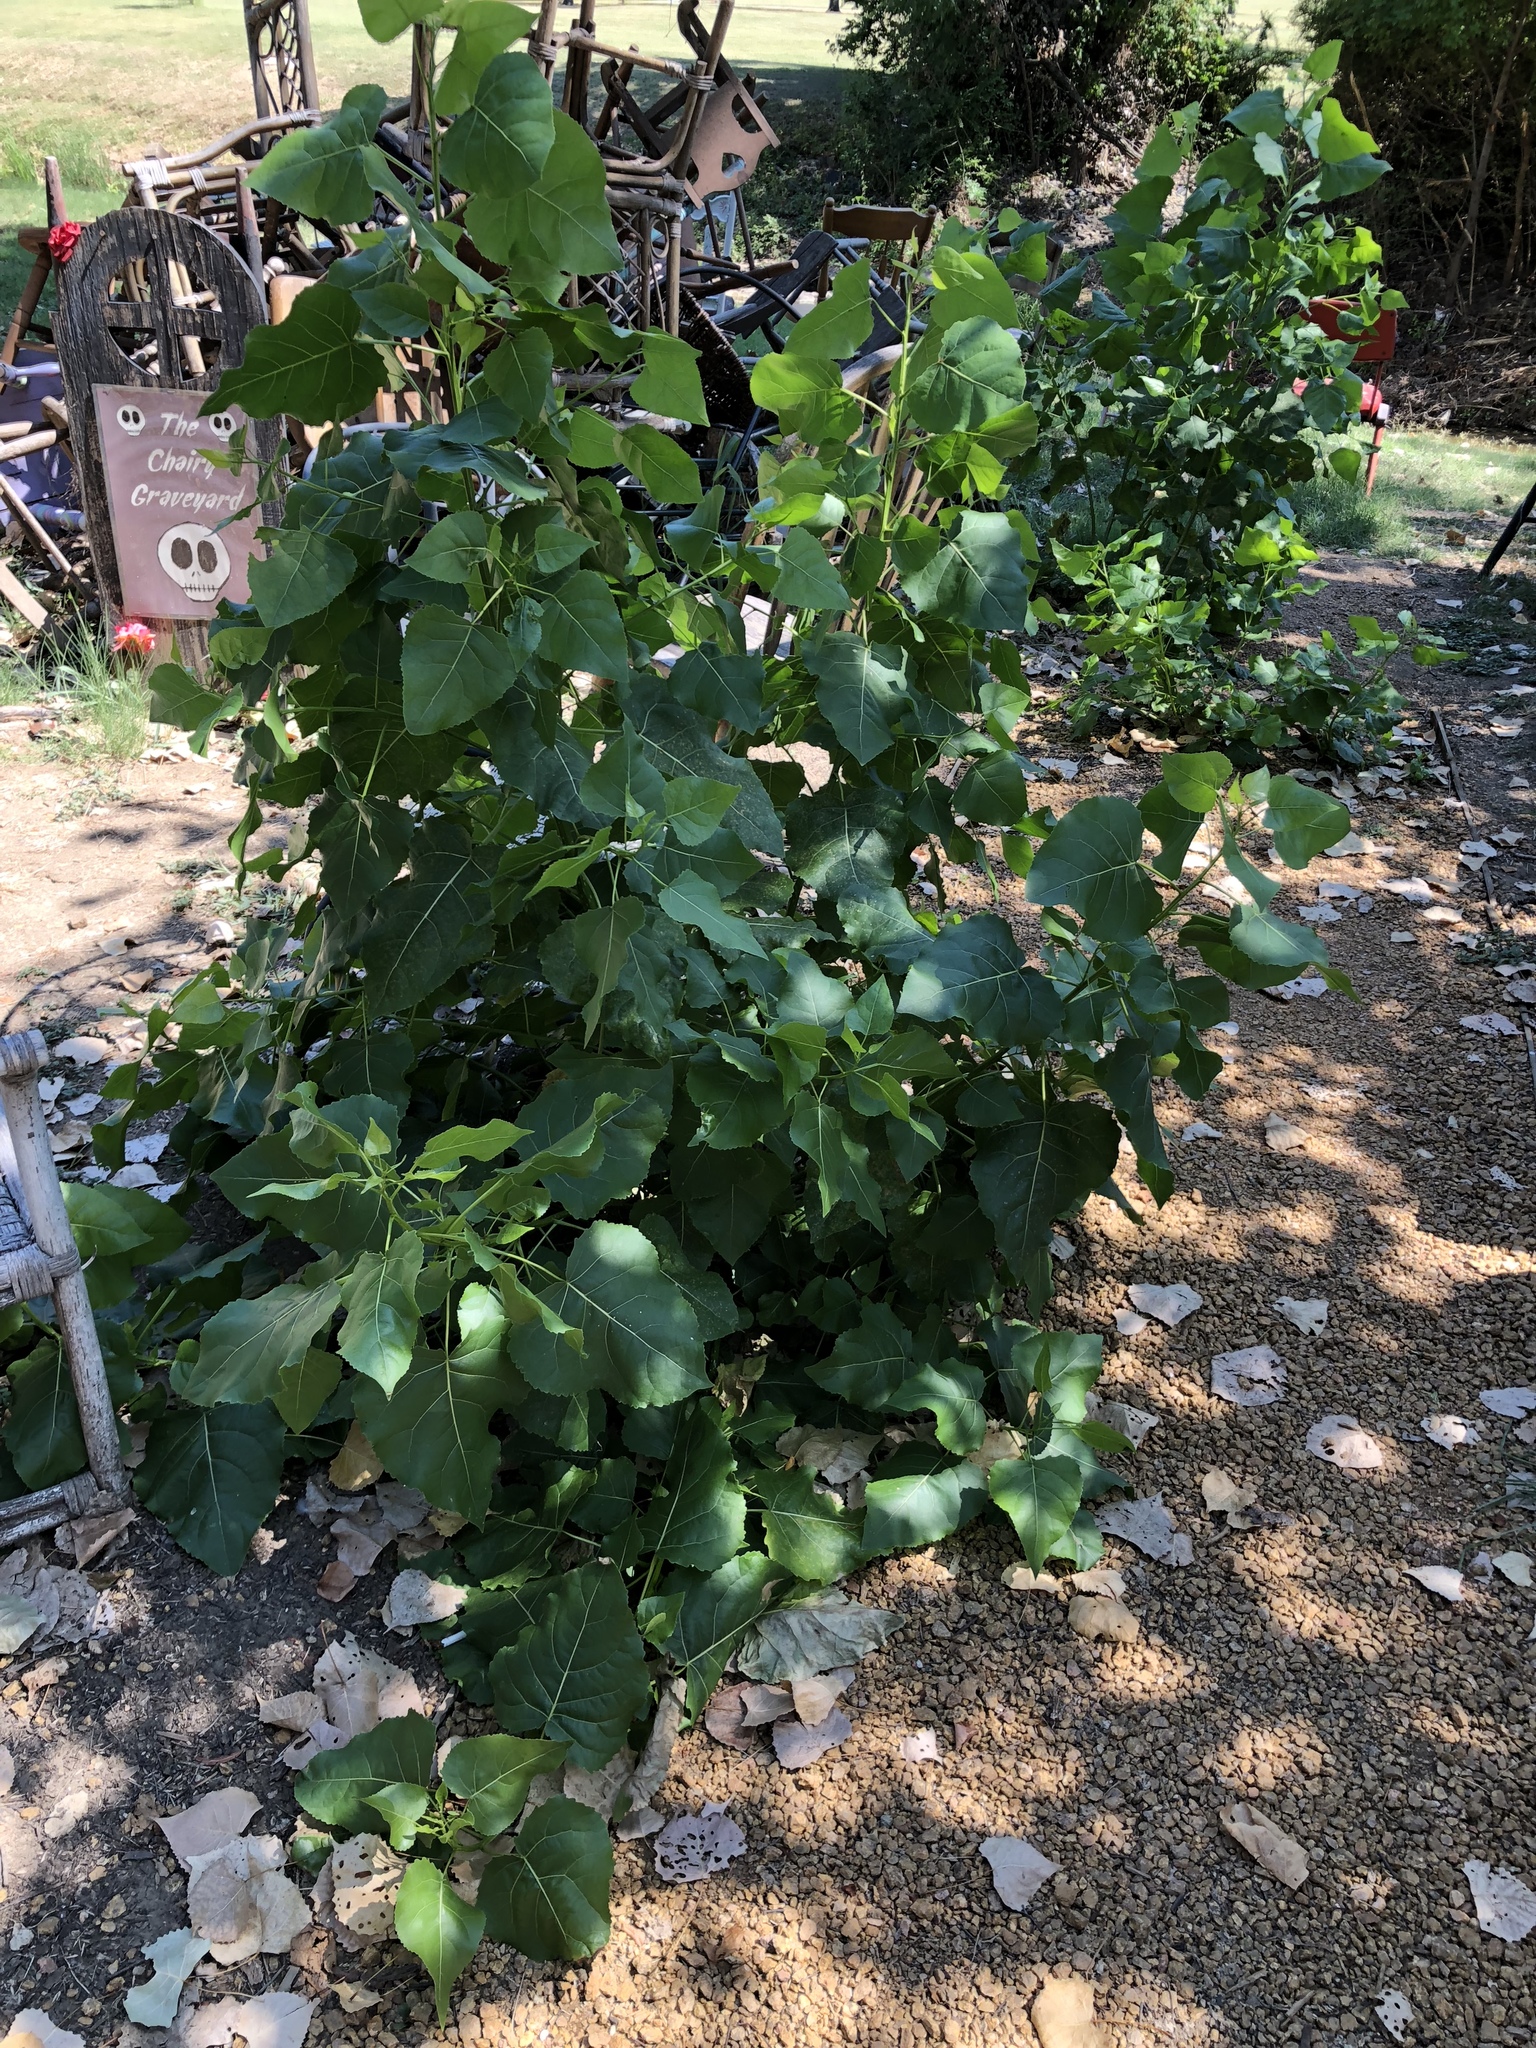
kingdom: Plantae
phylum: Tracheophyta
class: Magnoliopsida
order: Malpighiales
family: Salicaceae
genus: Populus
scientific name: Populus deltoides
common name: Eastern cottonwood
